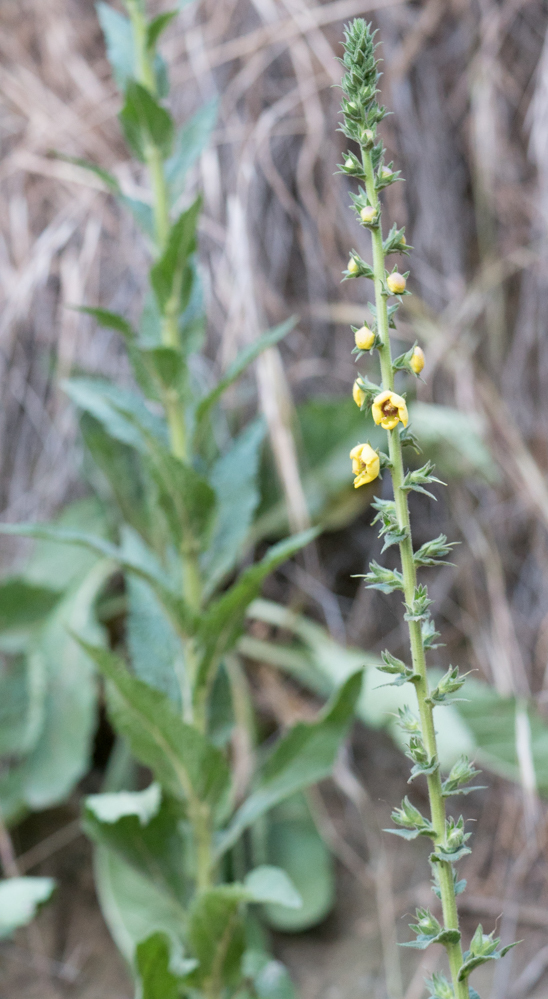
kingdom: Plantae
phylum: Tracheophyta
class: Magnoliopsida
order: Lamiales
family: Scrophulariaceae
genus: Verbascum
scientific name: Verbascum virgatum
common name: Twiggy mullein
